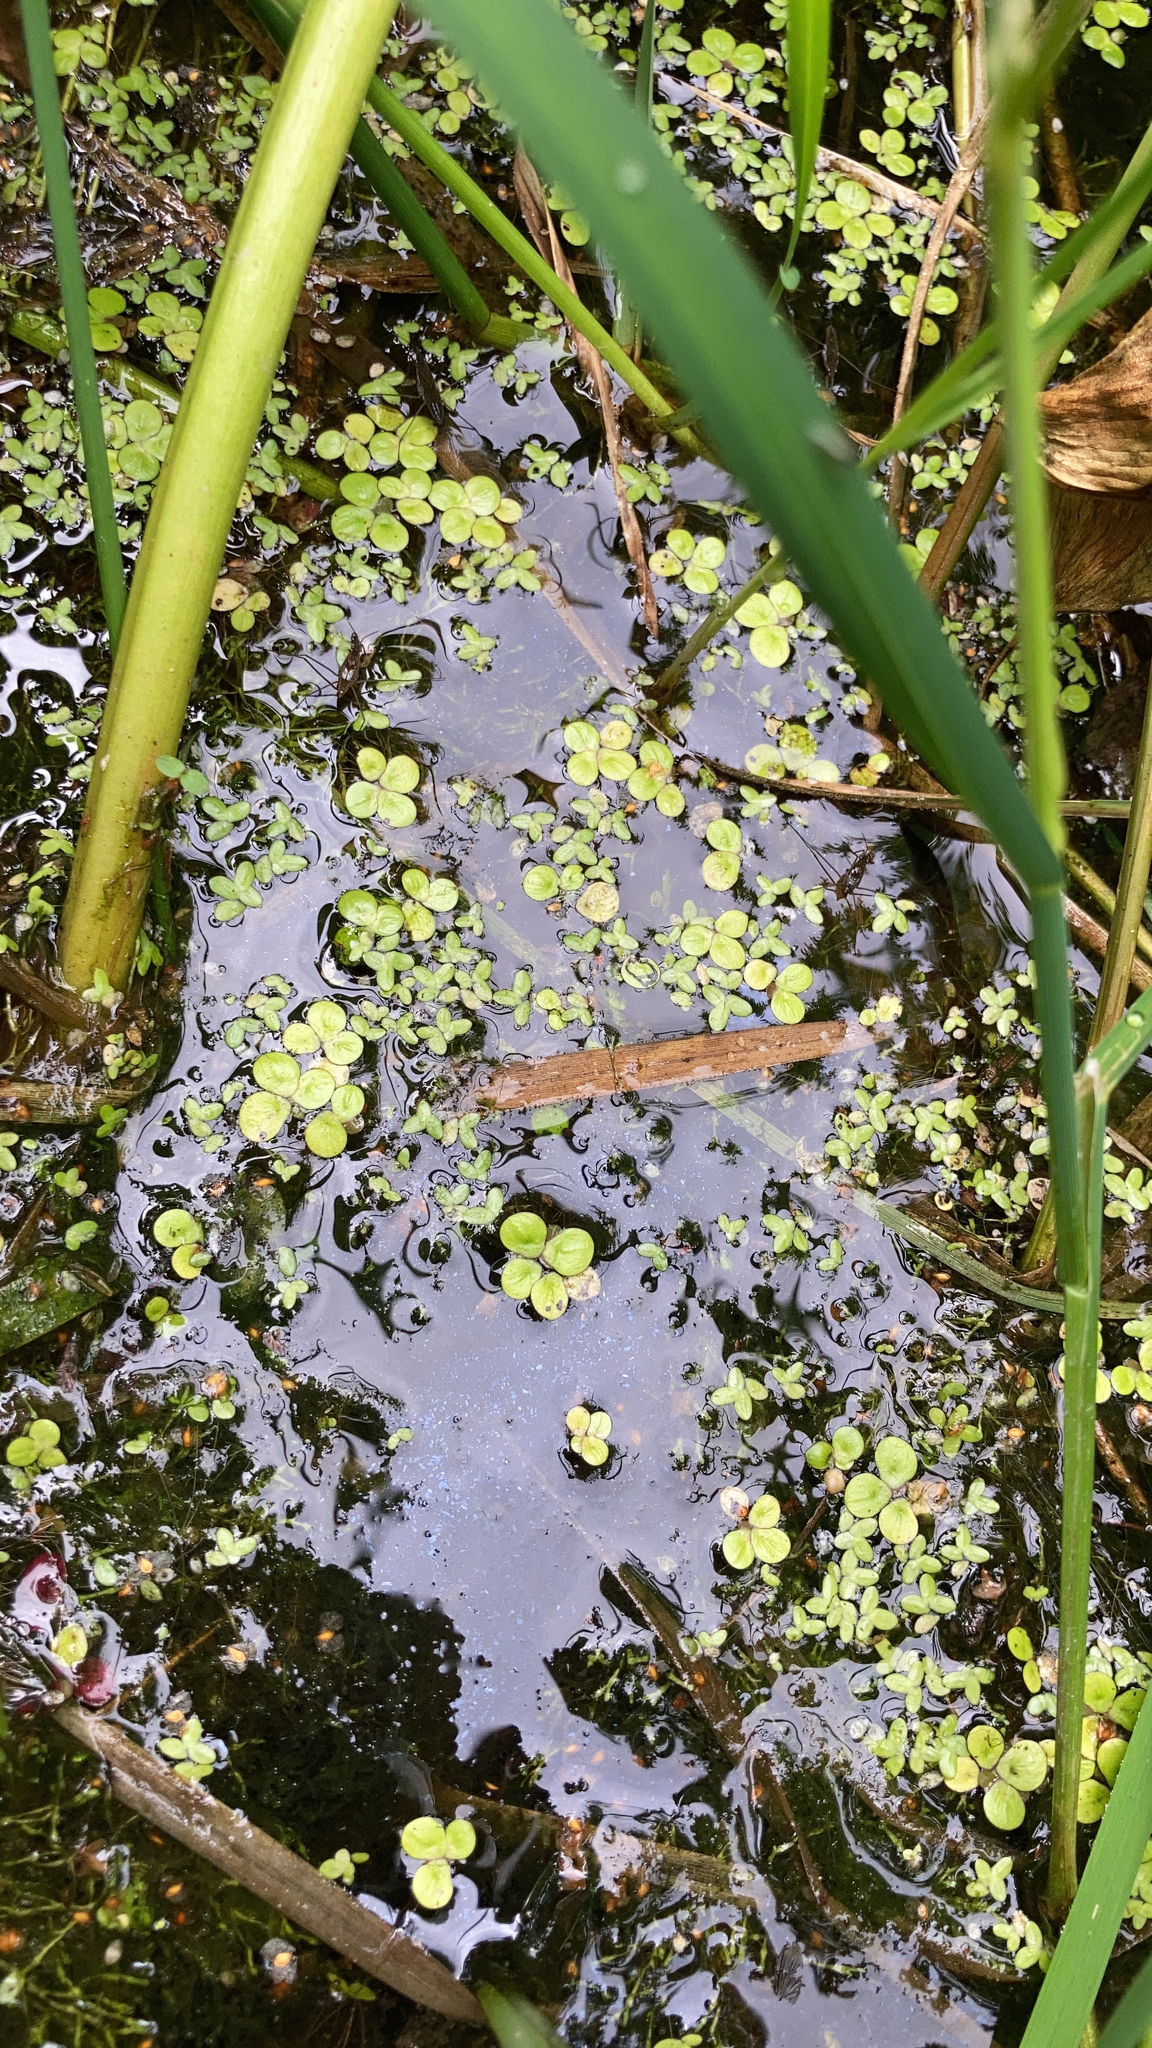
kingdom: Plantae
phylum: Tracheophyta
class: Liliopsida
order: Alismatales
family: Araceae
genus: Spirodela
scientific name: Spirodela polyrhiza
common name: Great duckweed
